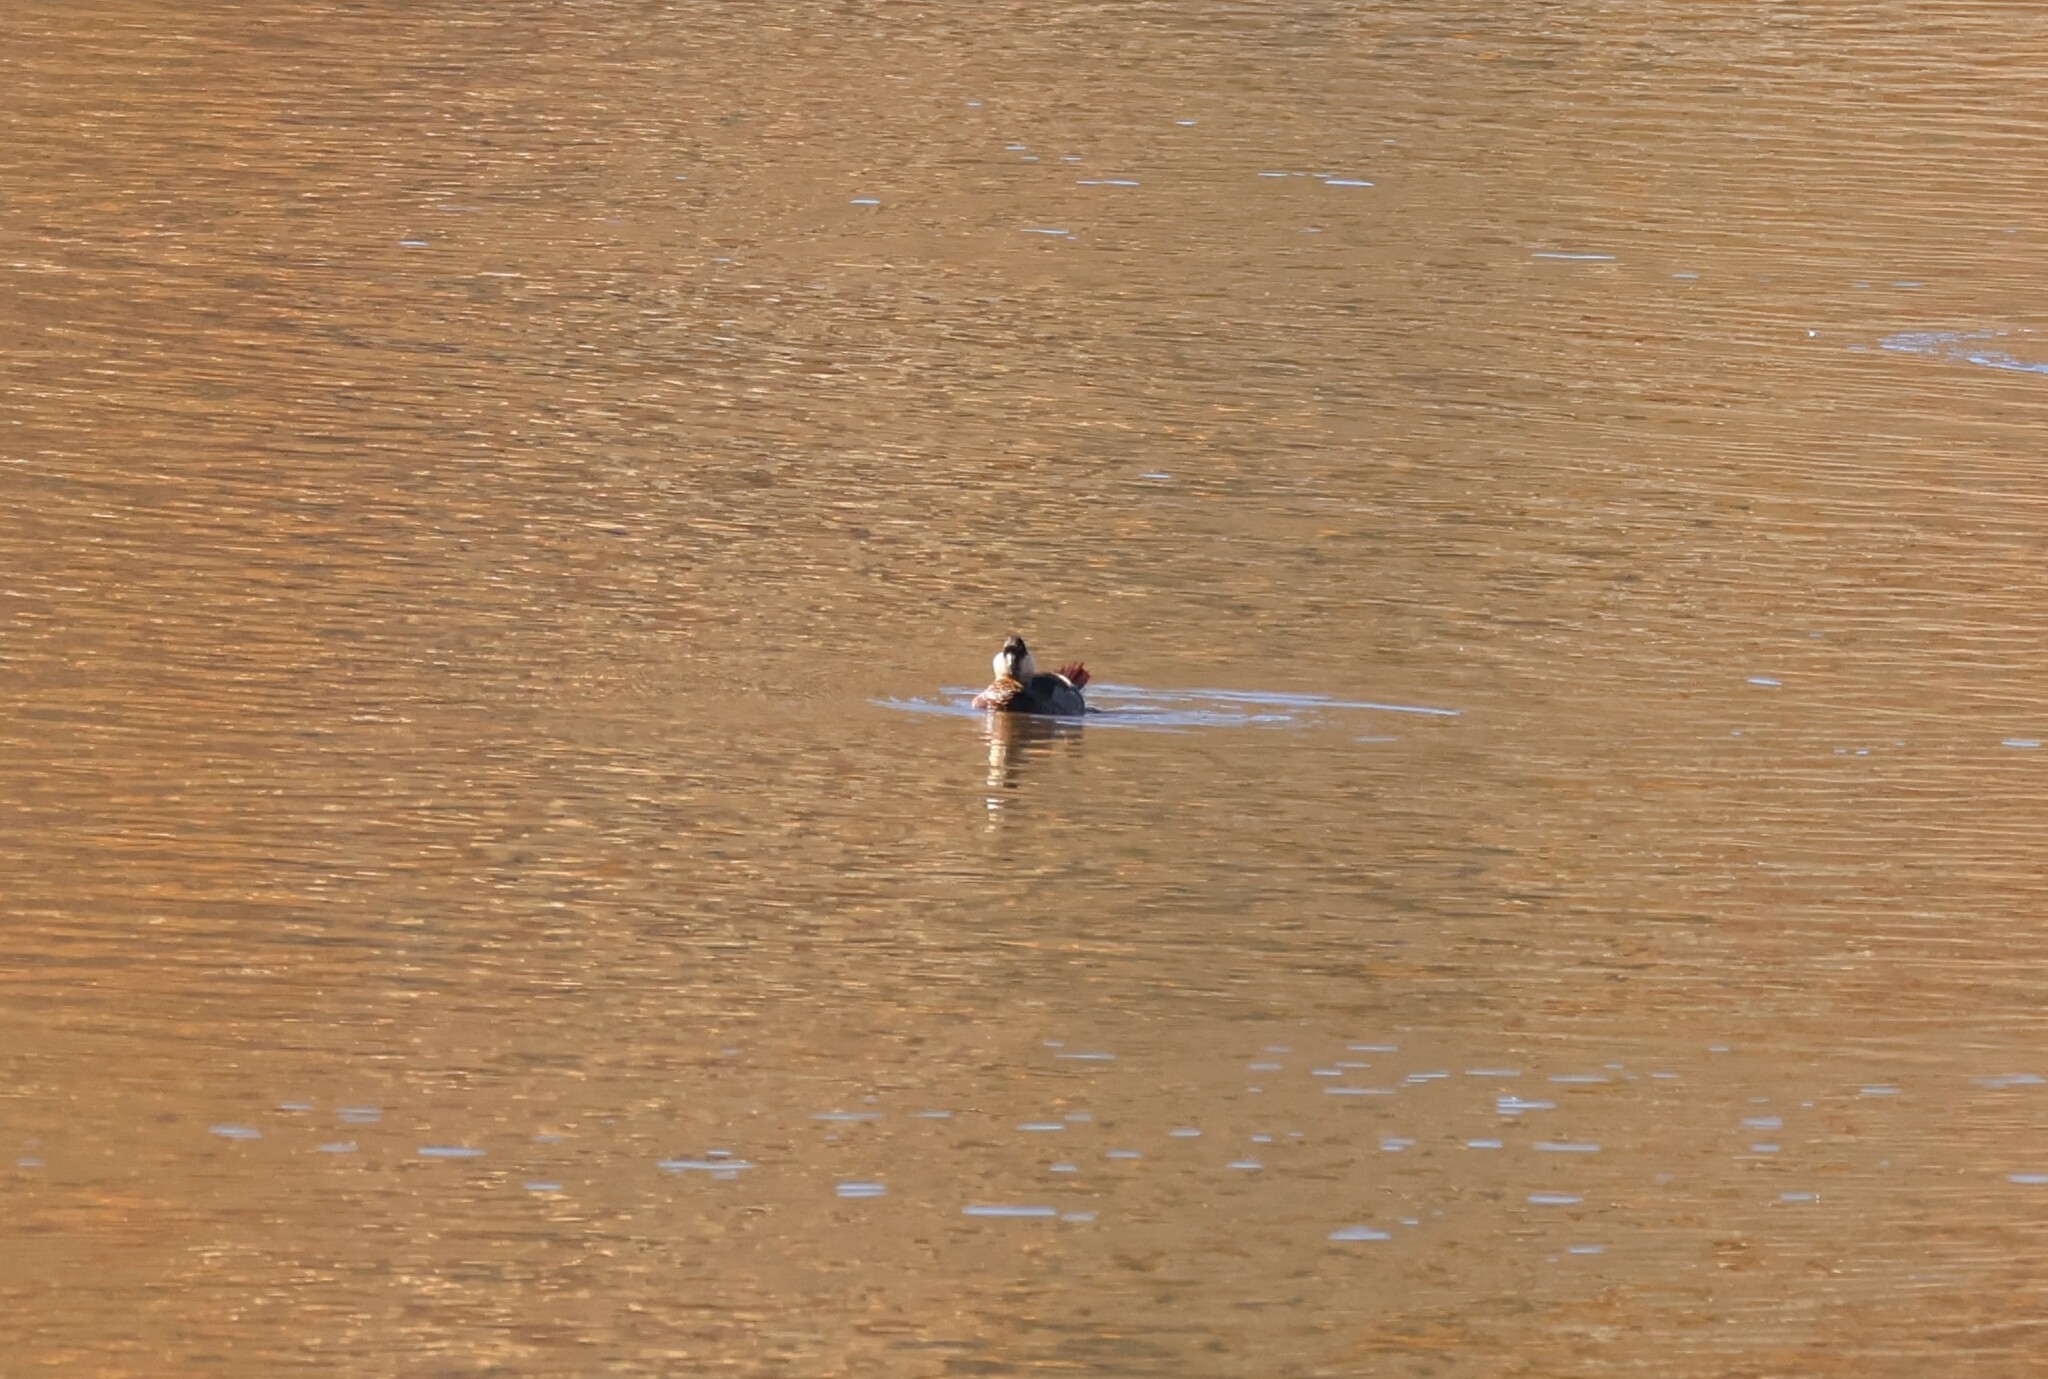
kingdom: Animalia
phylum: Chordata
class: Aves
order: Anseriformes
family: Anatidae
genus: Oxyura
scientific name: Oxyura jamaicensis
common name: Ruddy duck
